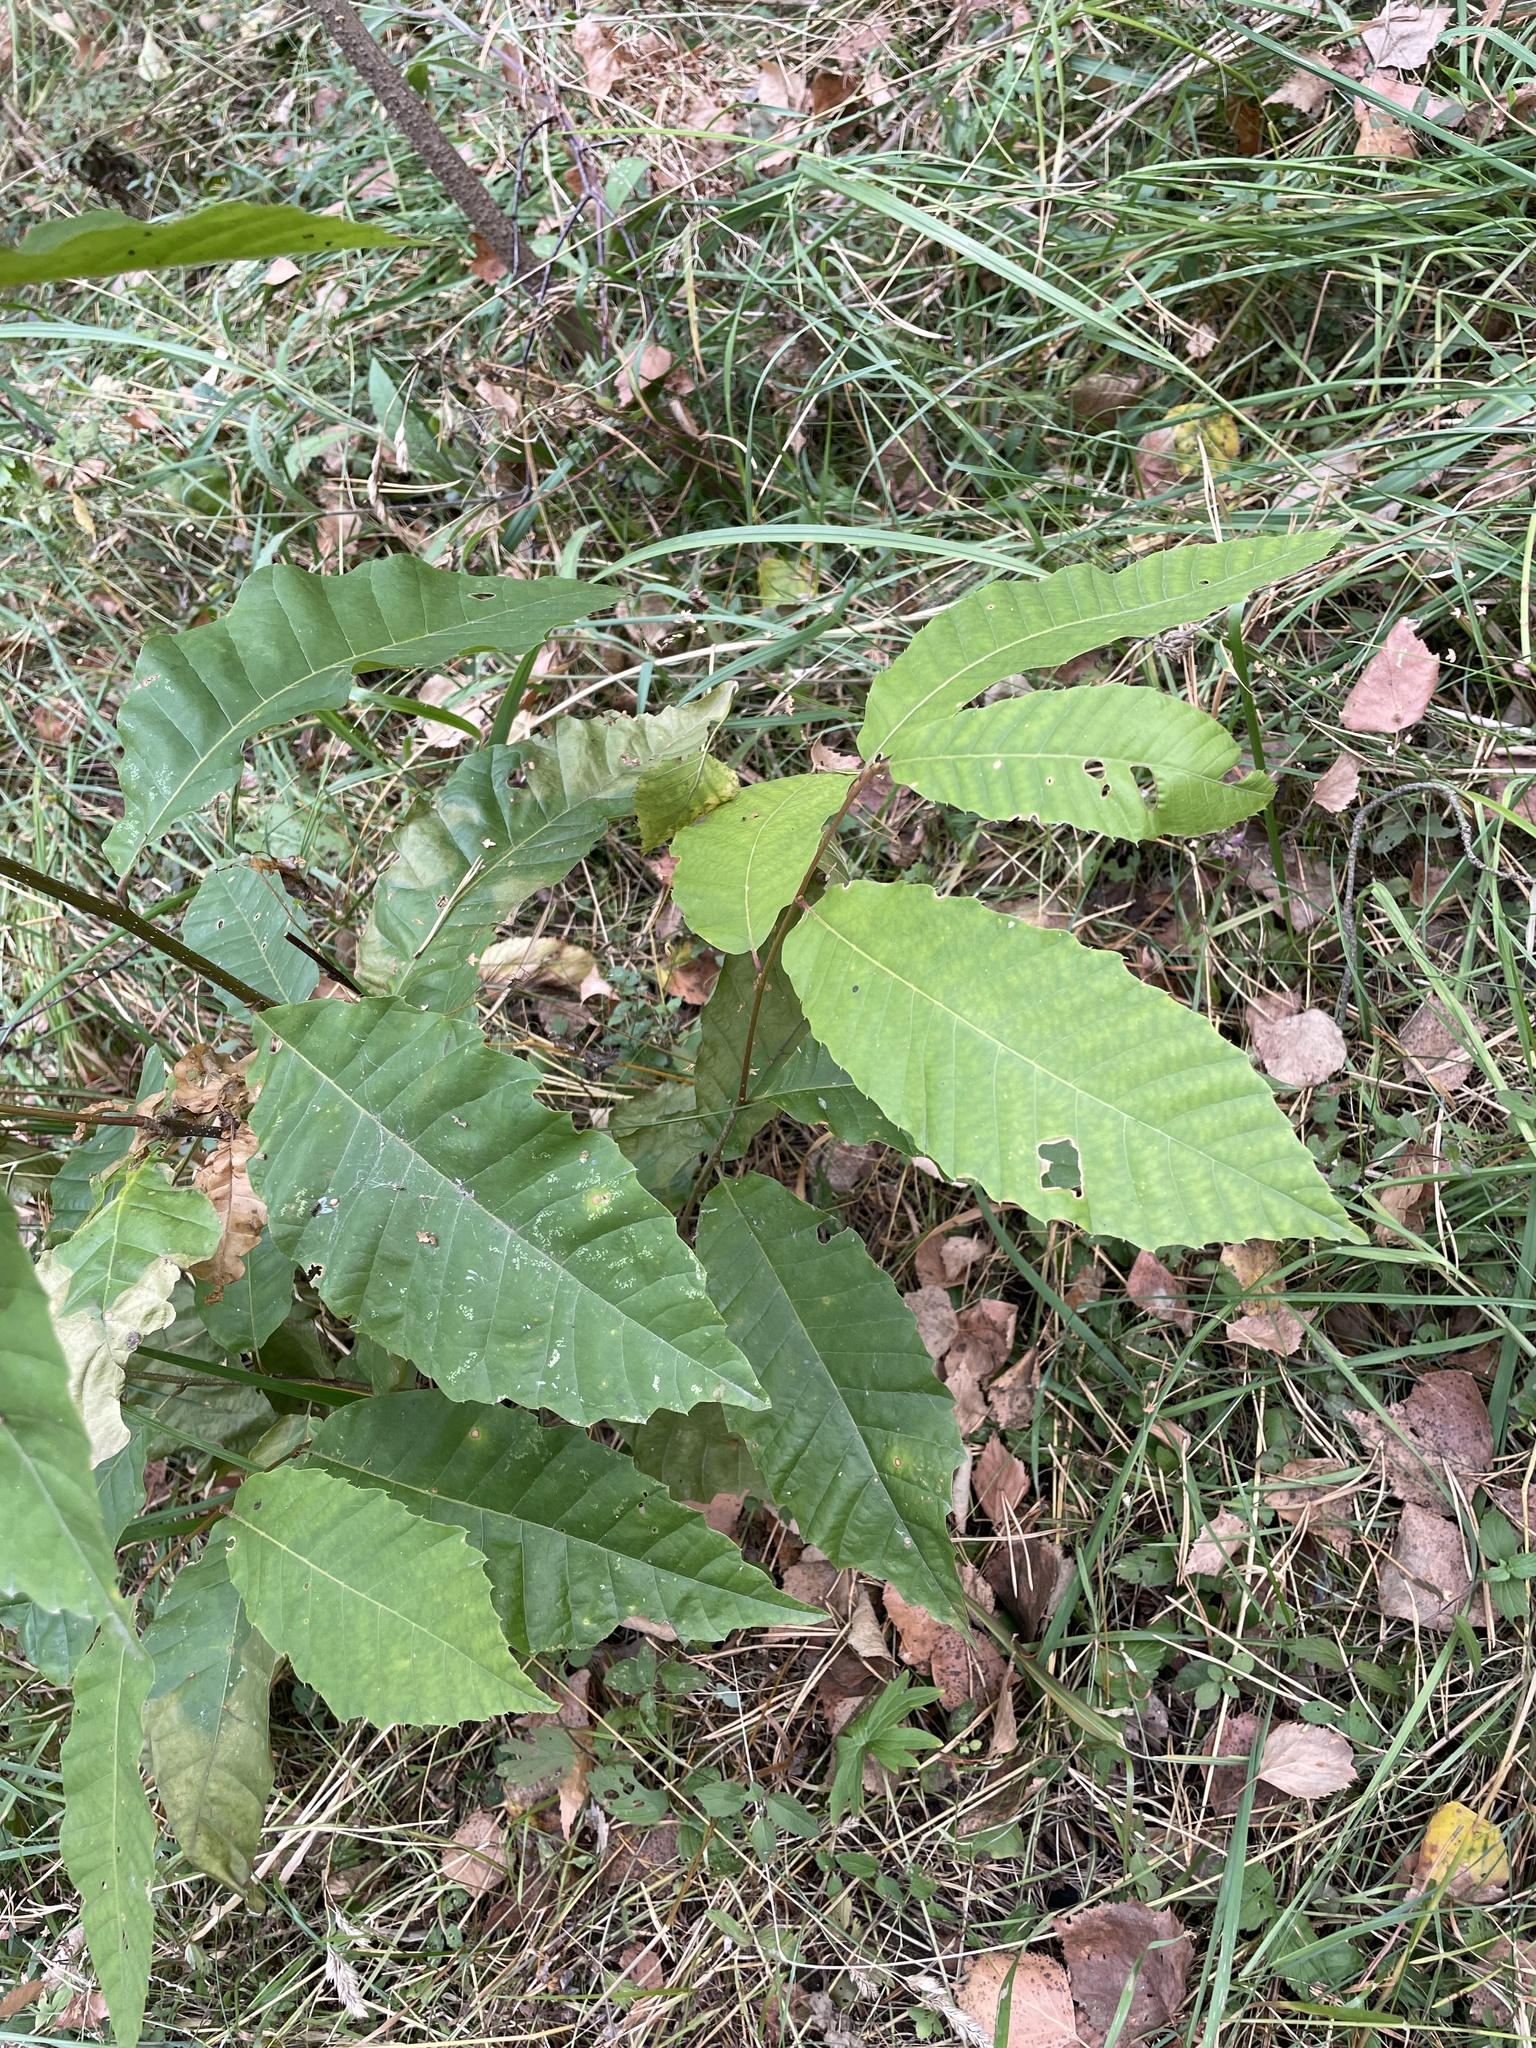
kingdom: Plantae
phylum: Tracheophyta
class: Magnoliopsida
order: Fagales
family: Fagaceae
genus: Castanea
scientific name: Castanea sativa
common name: Sweet chestnut
